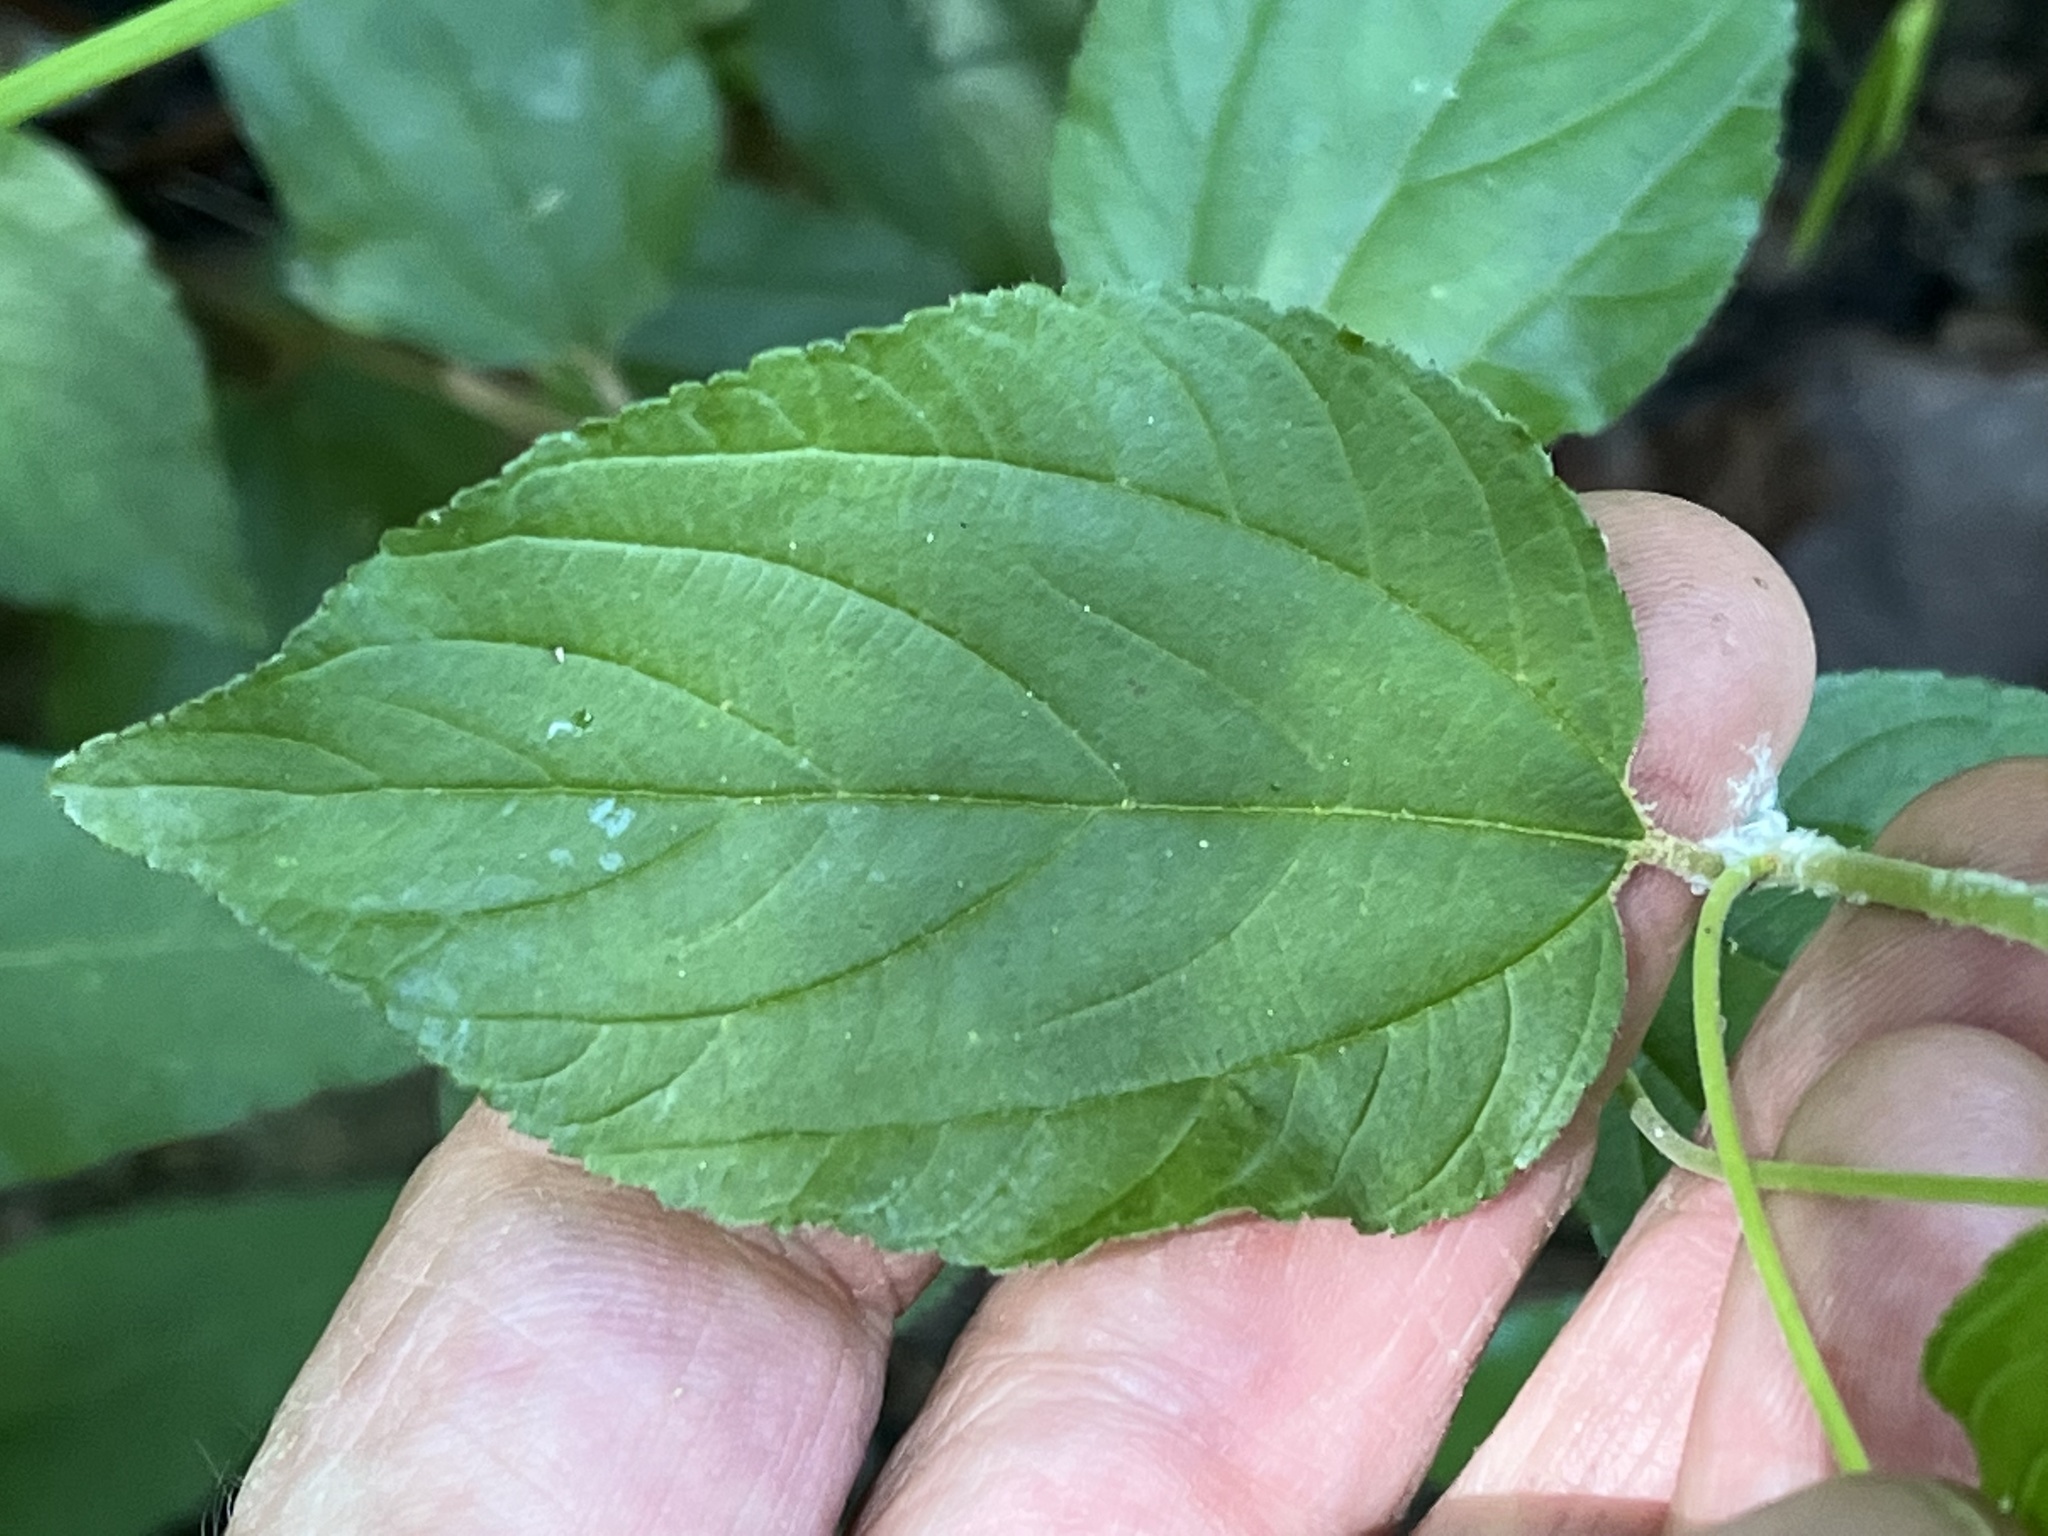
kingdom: Plantae
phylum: Tracheophyta
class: Magnoliopsida
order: Rosales
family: Rhamnaceae
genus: Ceanothus
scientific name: Ceanothus americanus
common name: Redroot
